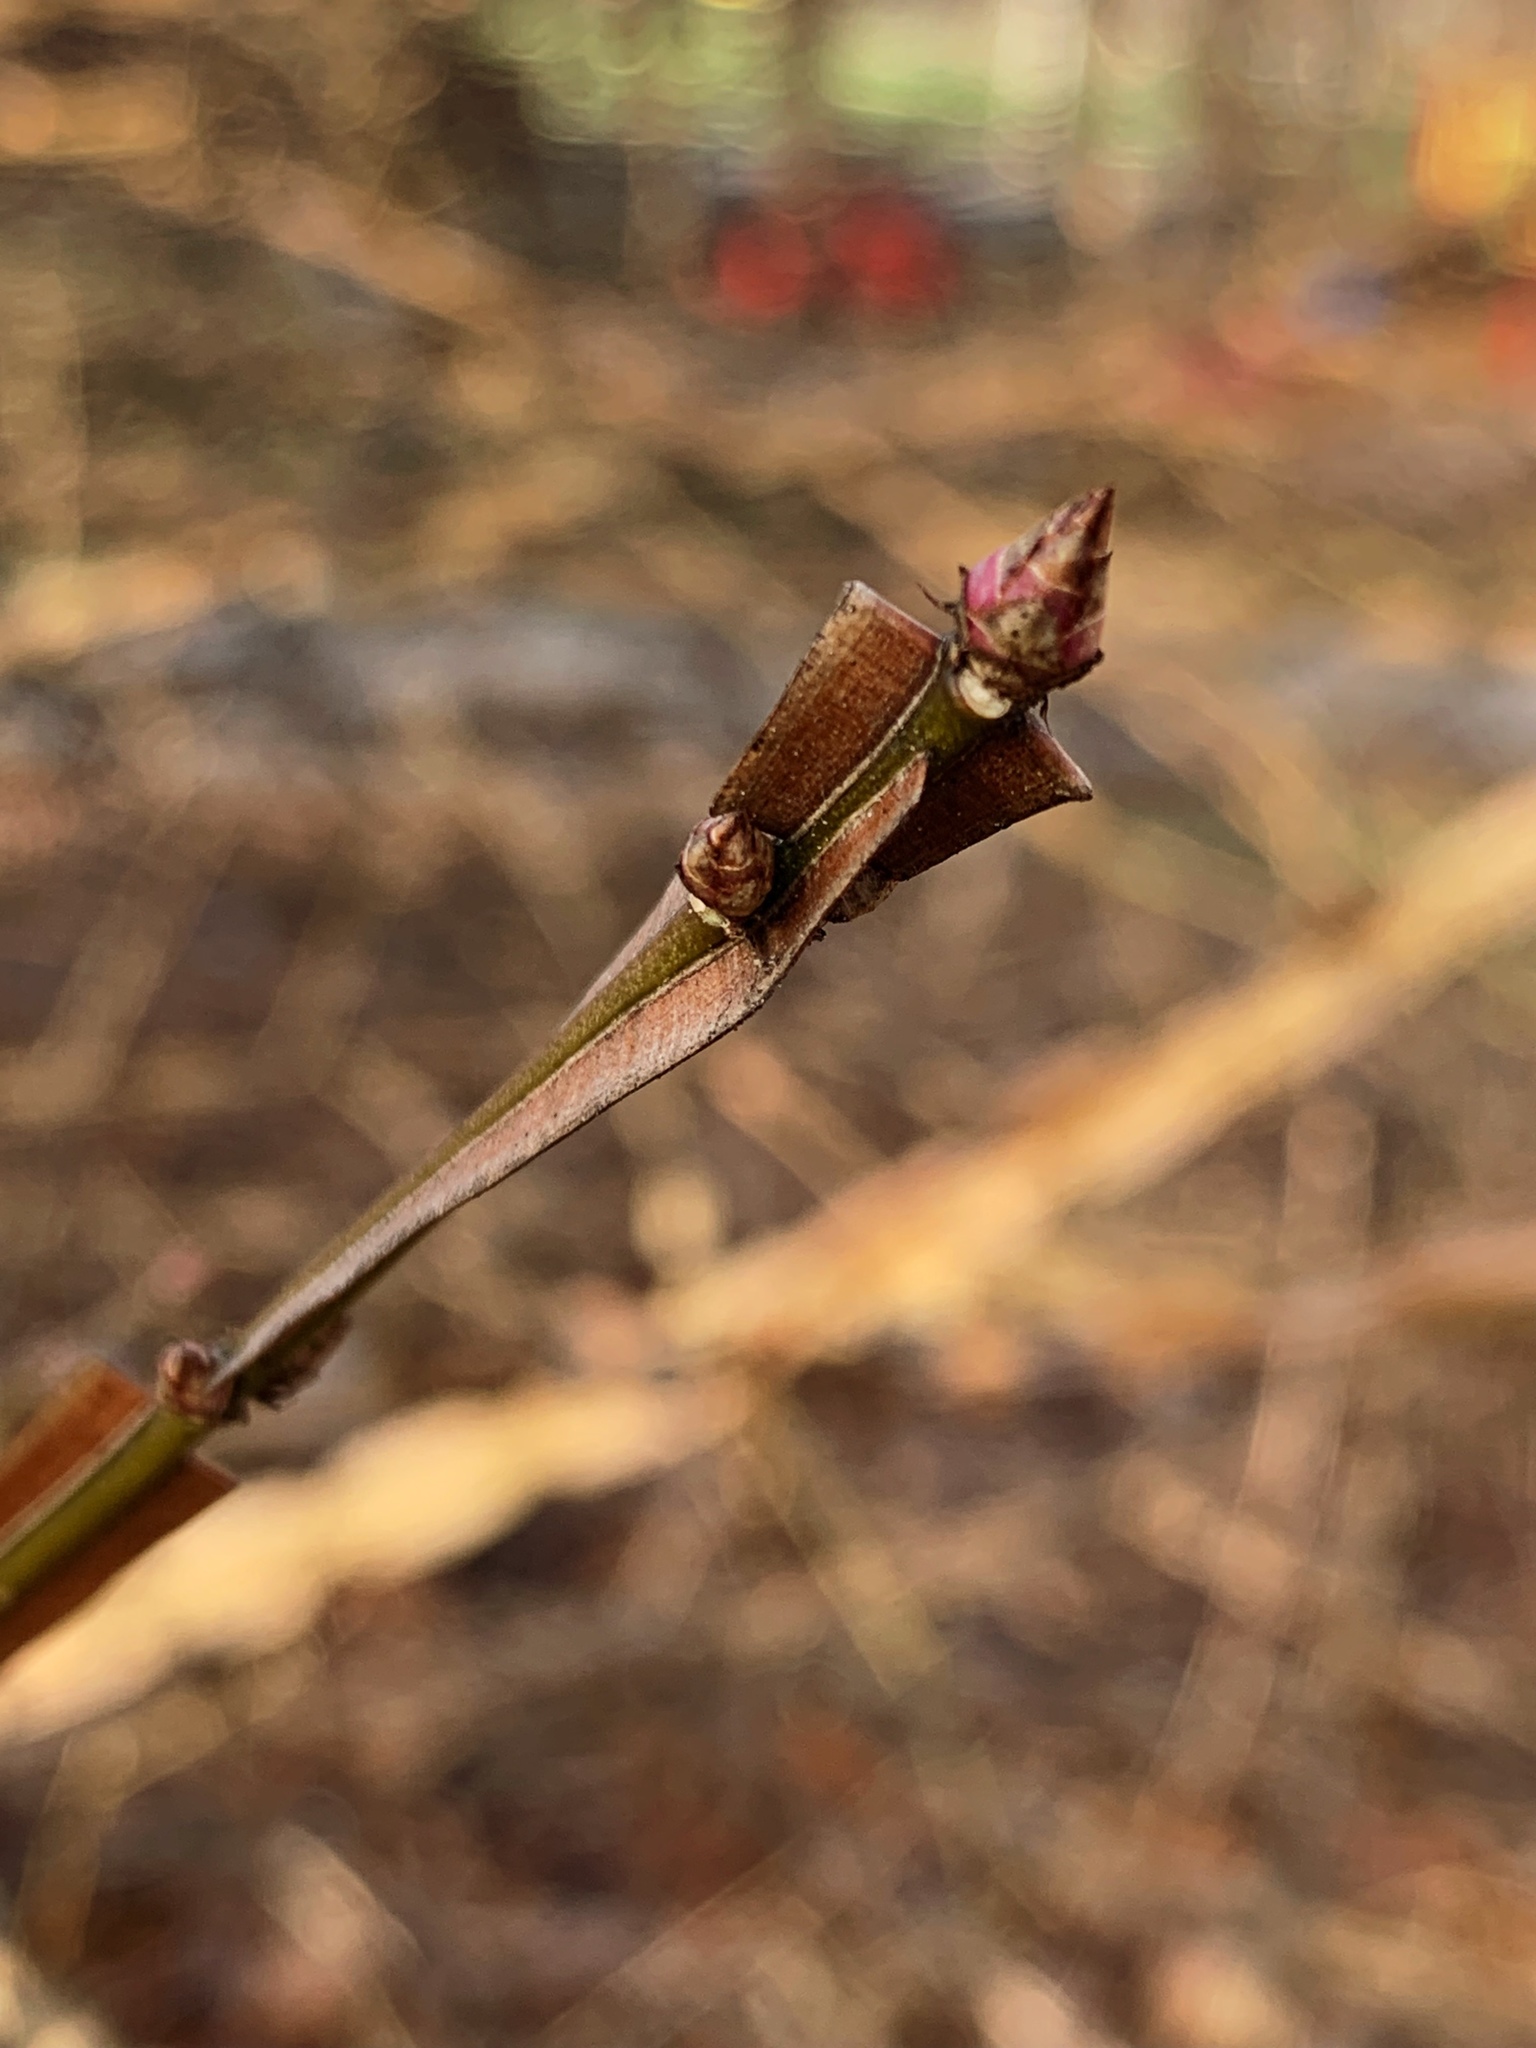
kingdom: Plantae
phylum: Tracheophyta
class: Magnoliopsida
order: Celastrales
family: Celastraceae
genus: Euonymus
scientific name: Euonymus alatus
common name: Winged euonymus
